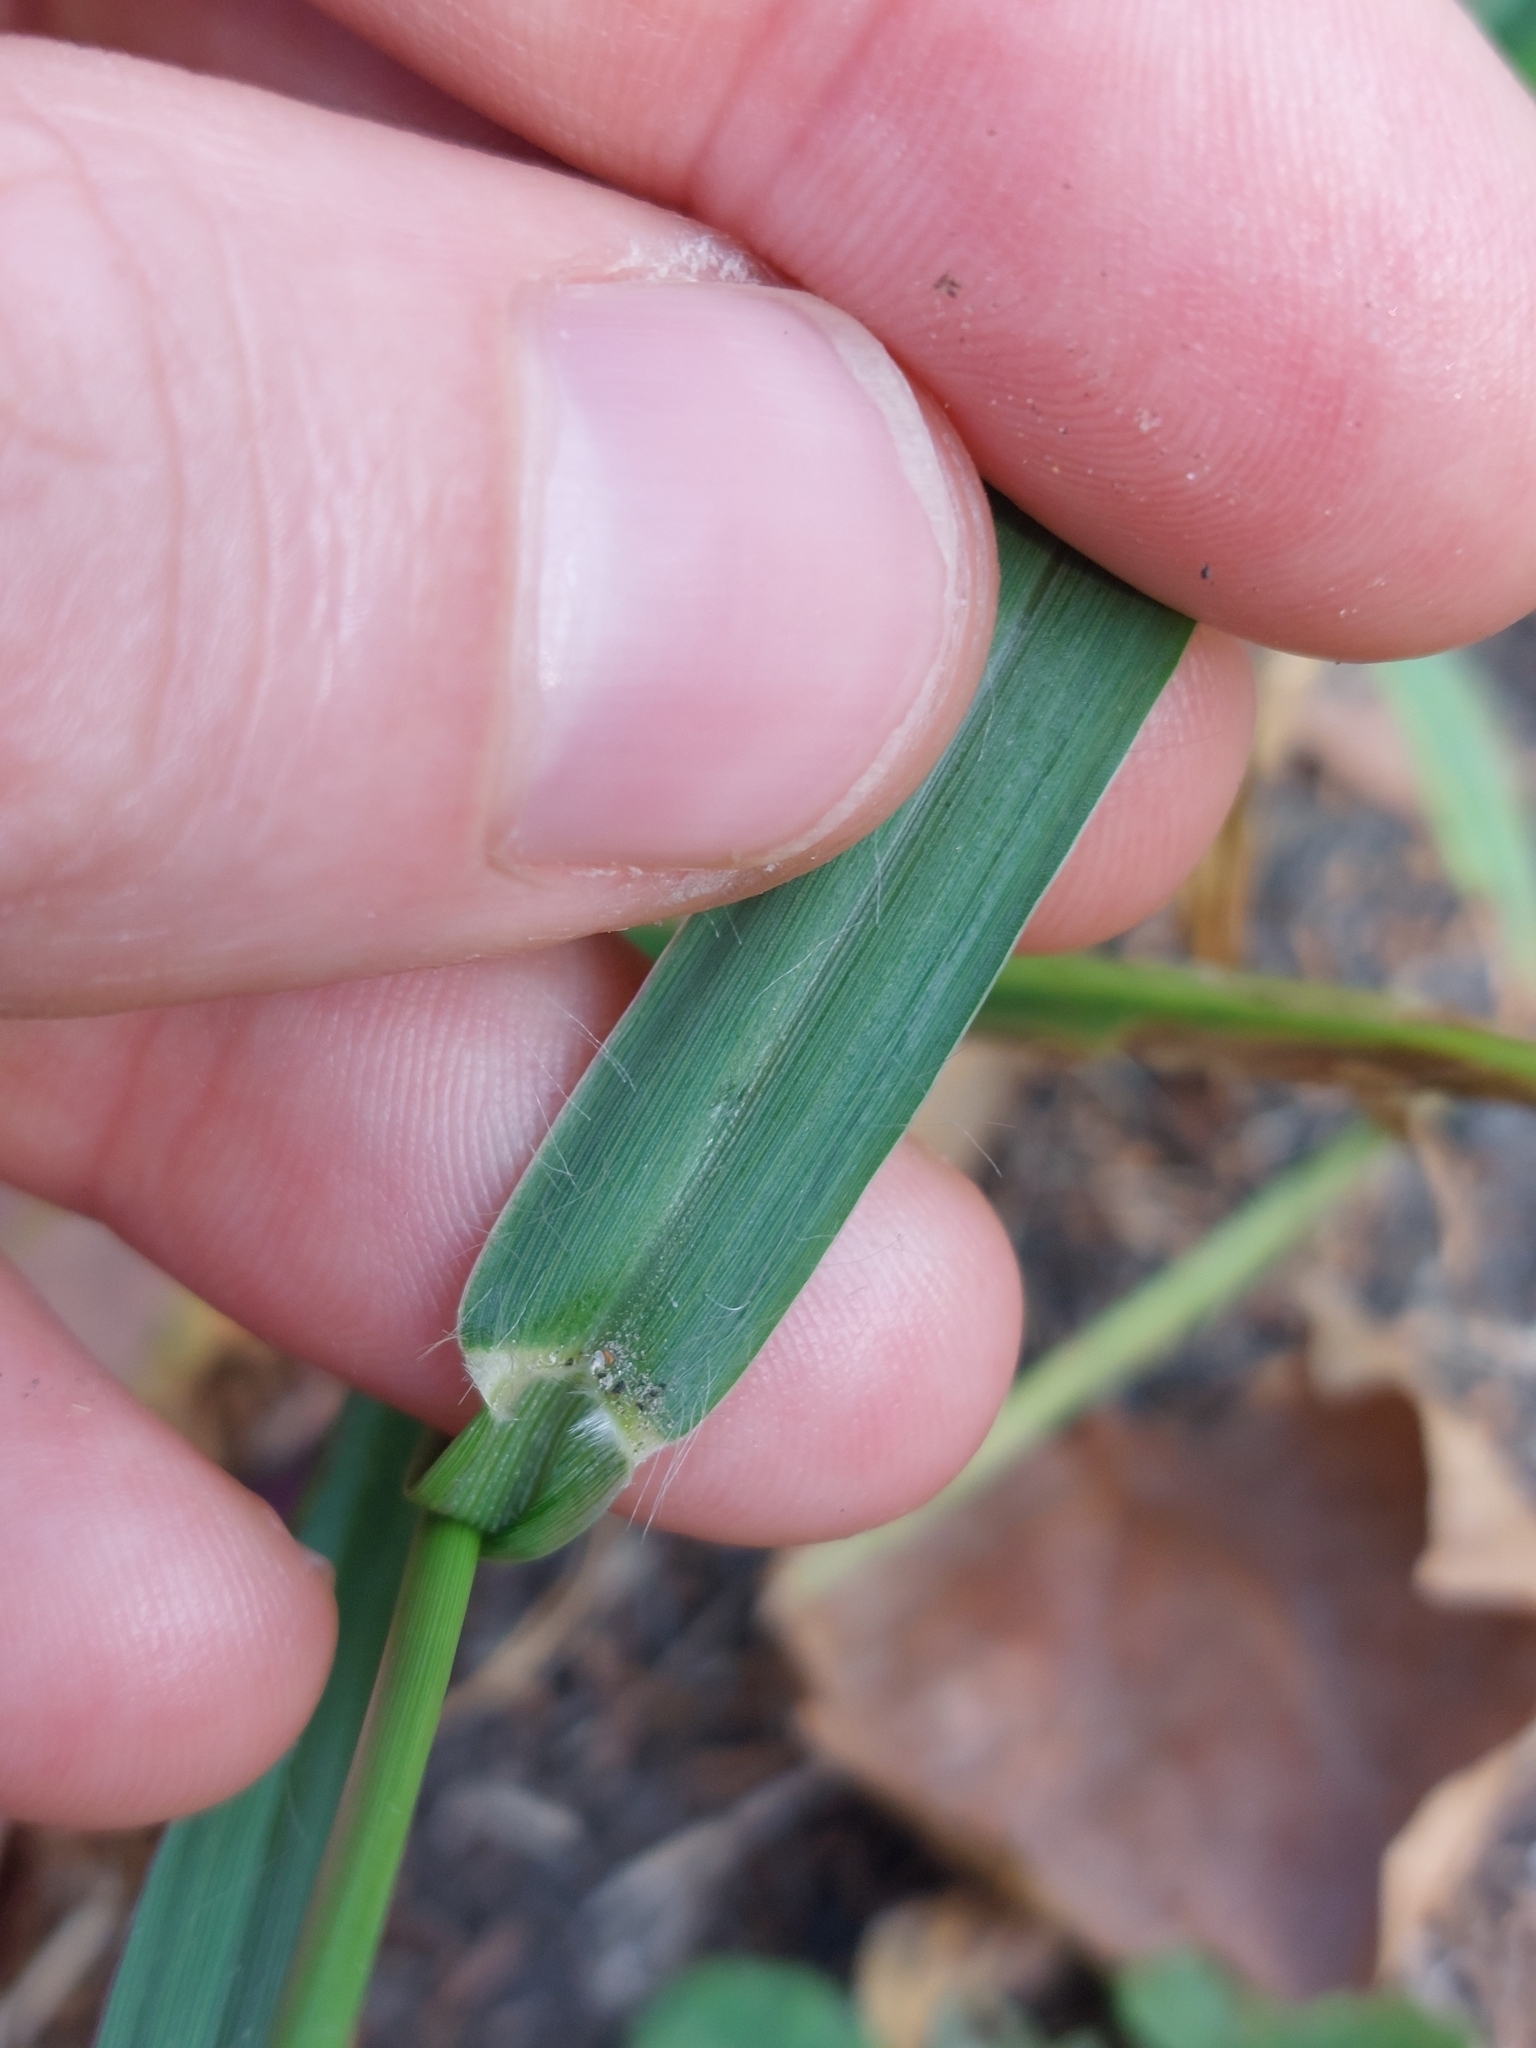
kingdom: Plantae
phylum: Tracheophyta
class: Liliopsida
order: Poales
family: Poaceae
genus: Setaria
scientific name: Setaria viridis
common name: Green bristlegrass
